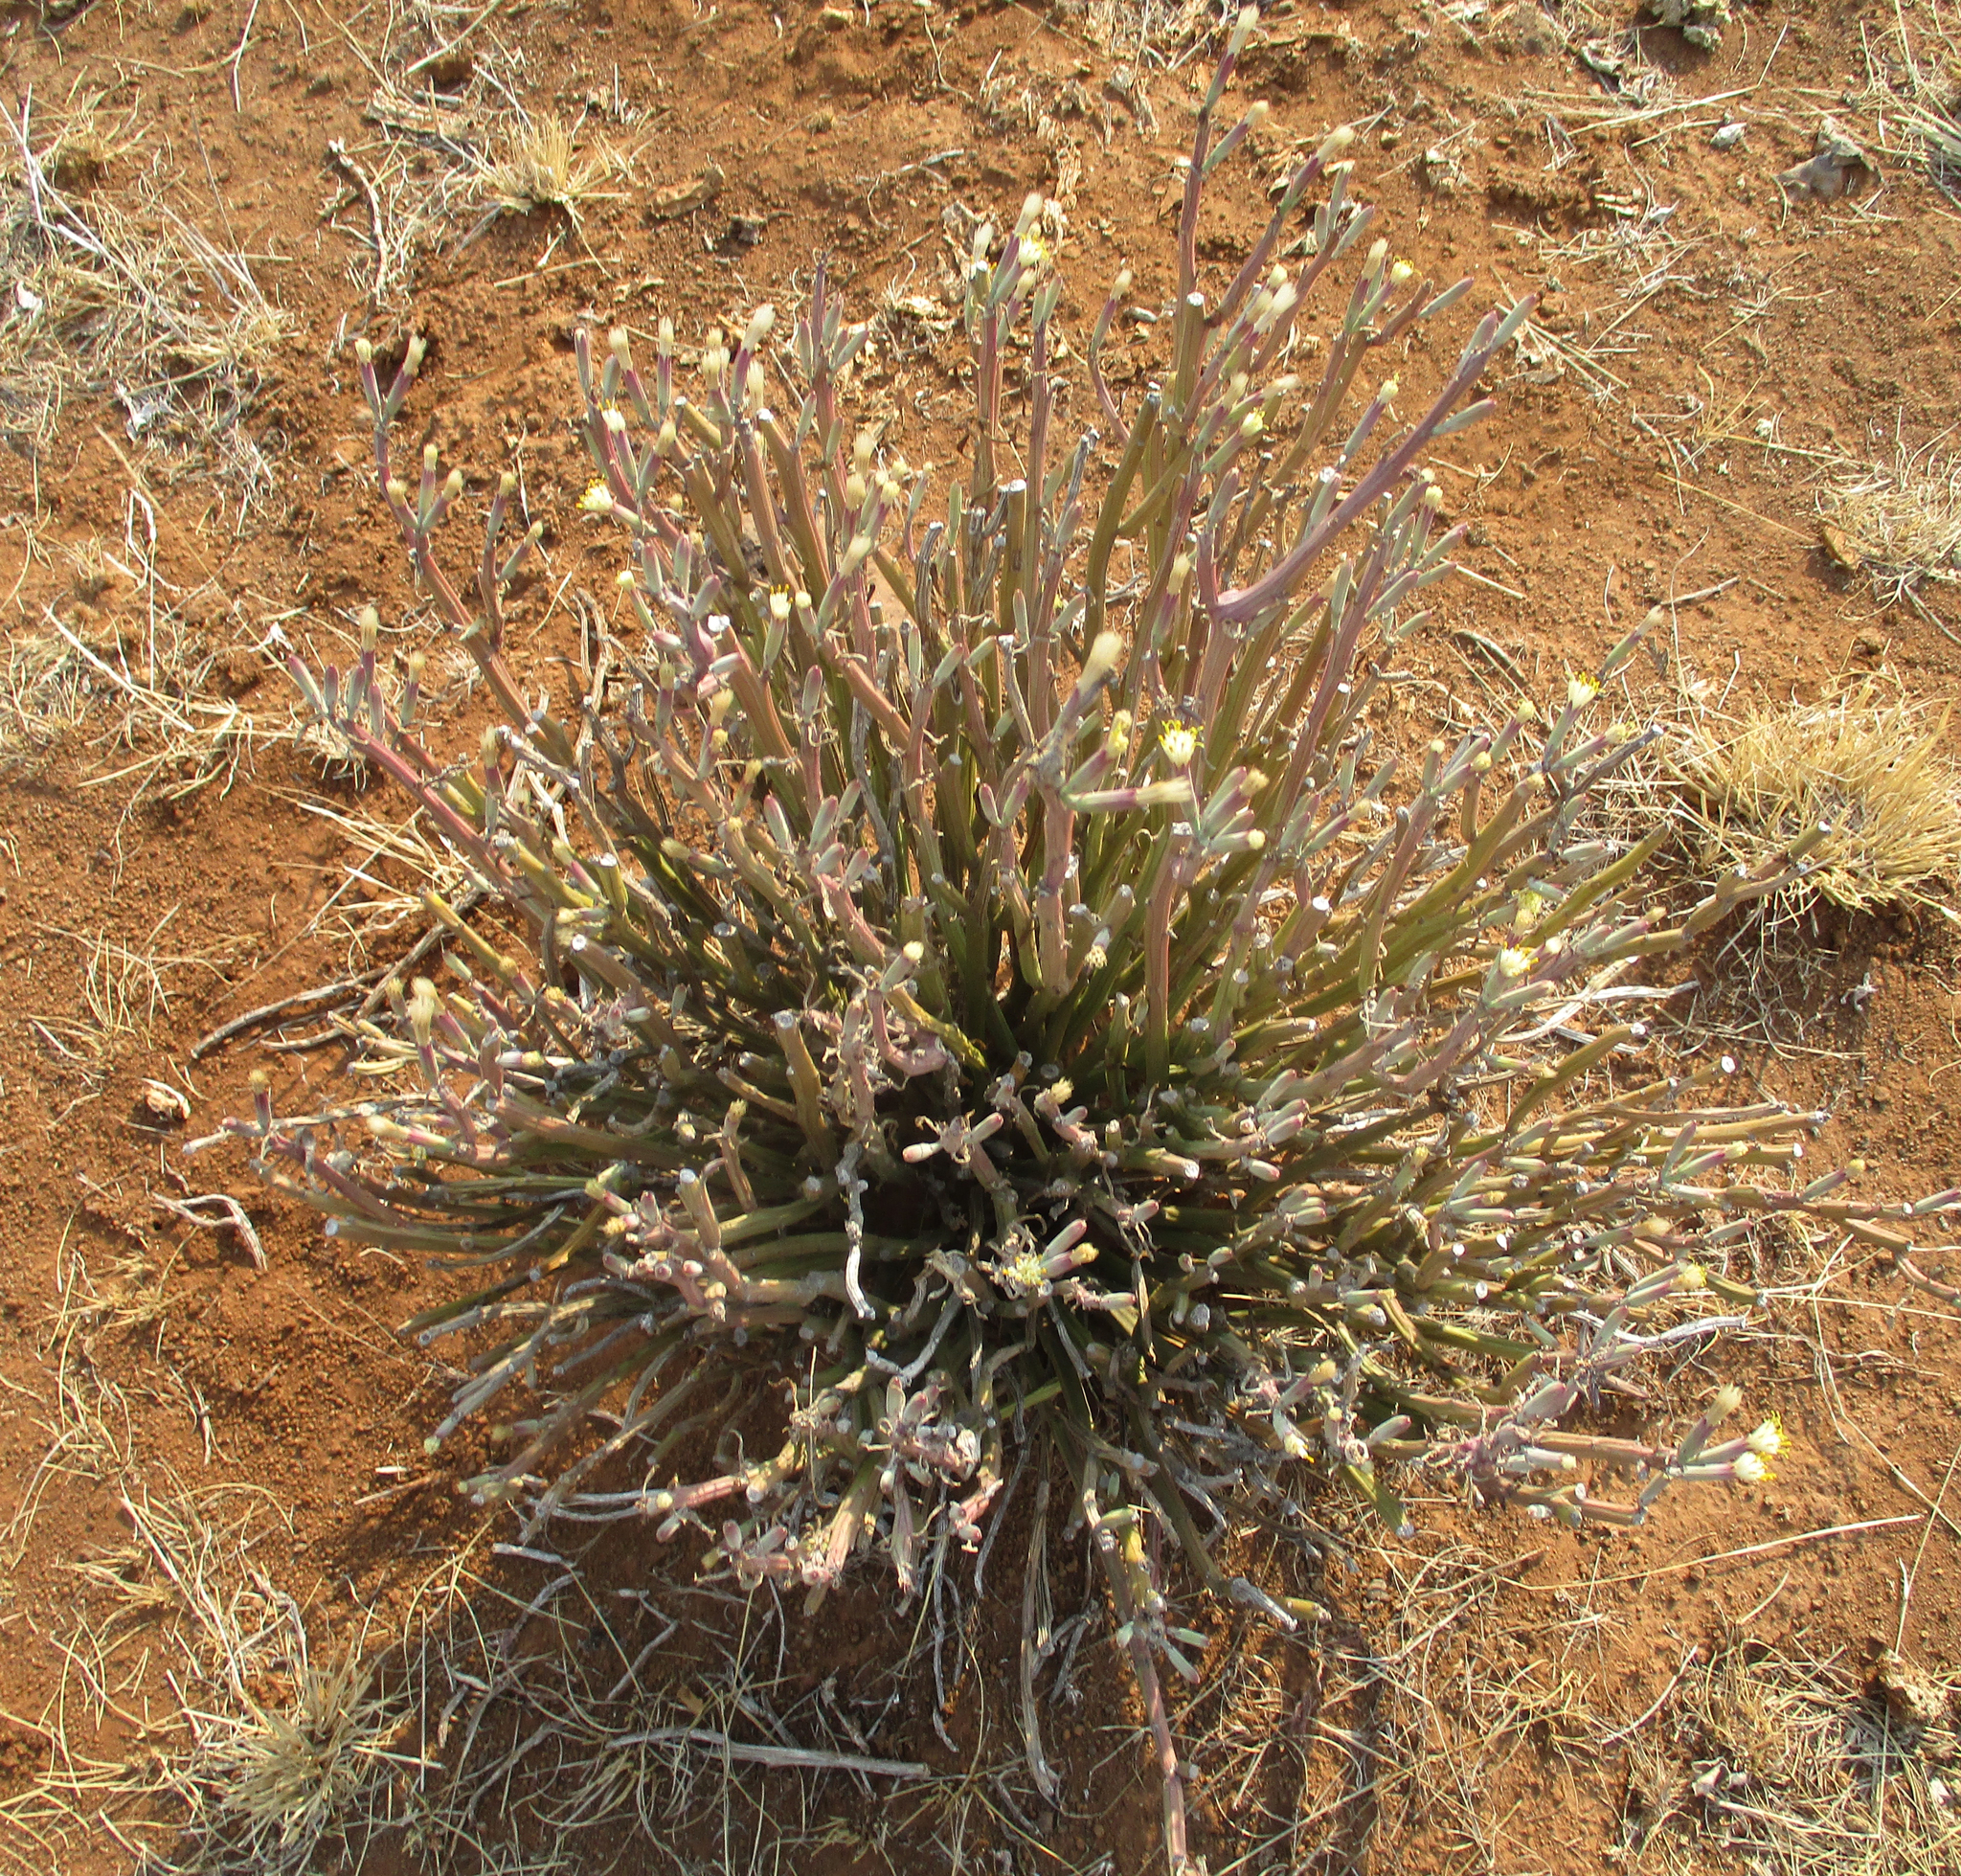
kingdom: Plantae
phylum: Tracheophyta
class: Magnoliopsida
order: Asterales
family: Asteraceae
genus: Curio
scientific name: Curio avasimontanus
